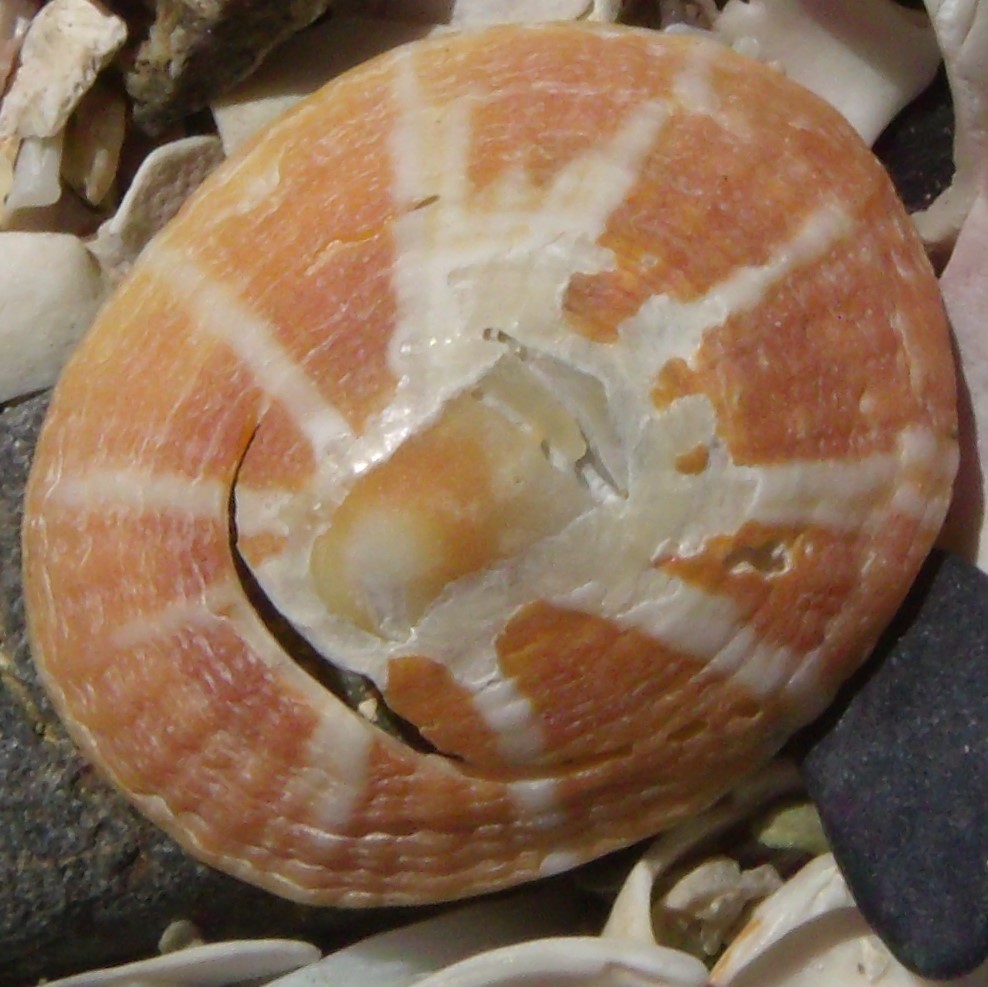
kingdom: Animalia
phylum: Mollusca
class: Gastropoda
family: Nacellidae
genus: Cellana
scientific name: Cellana stellifera
